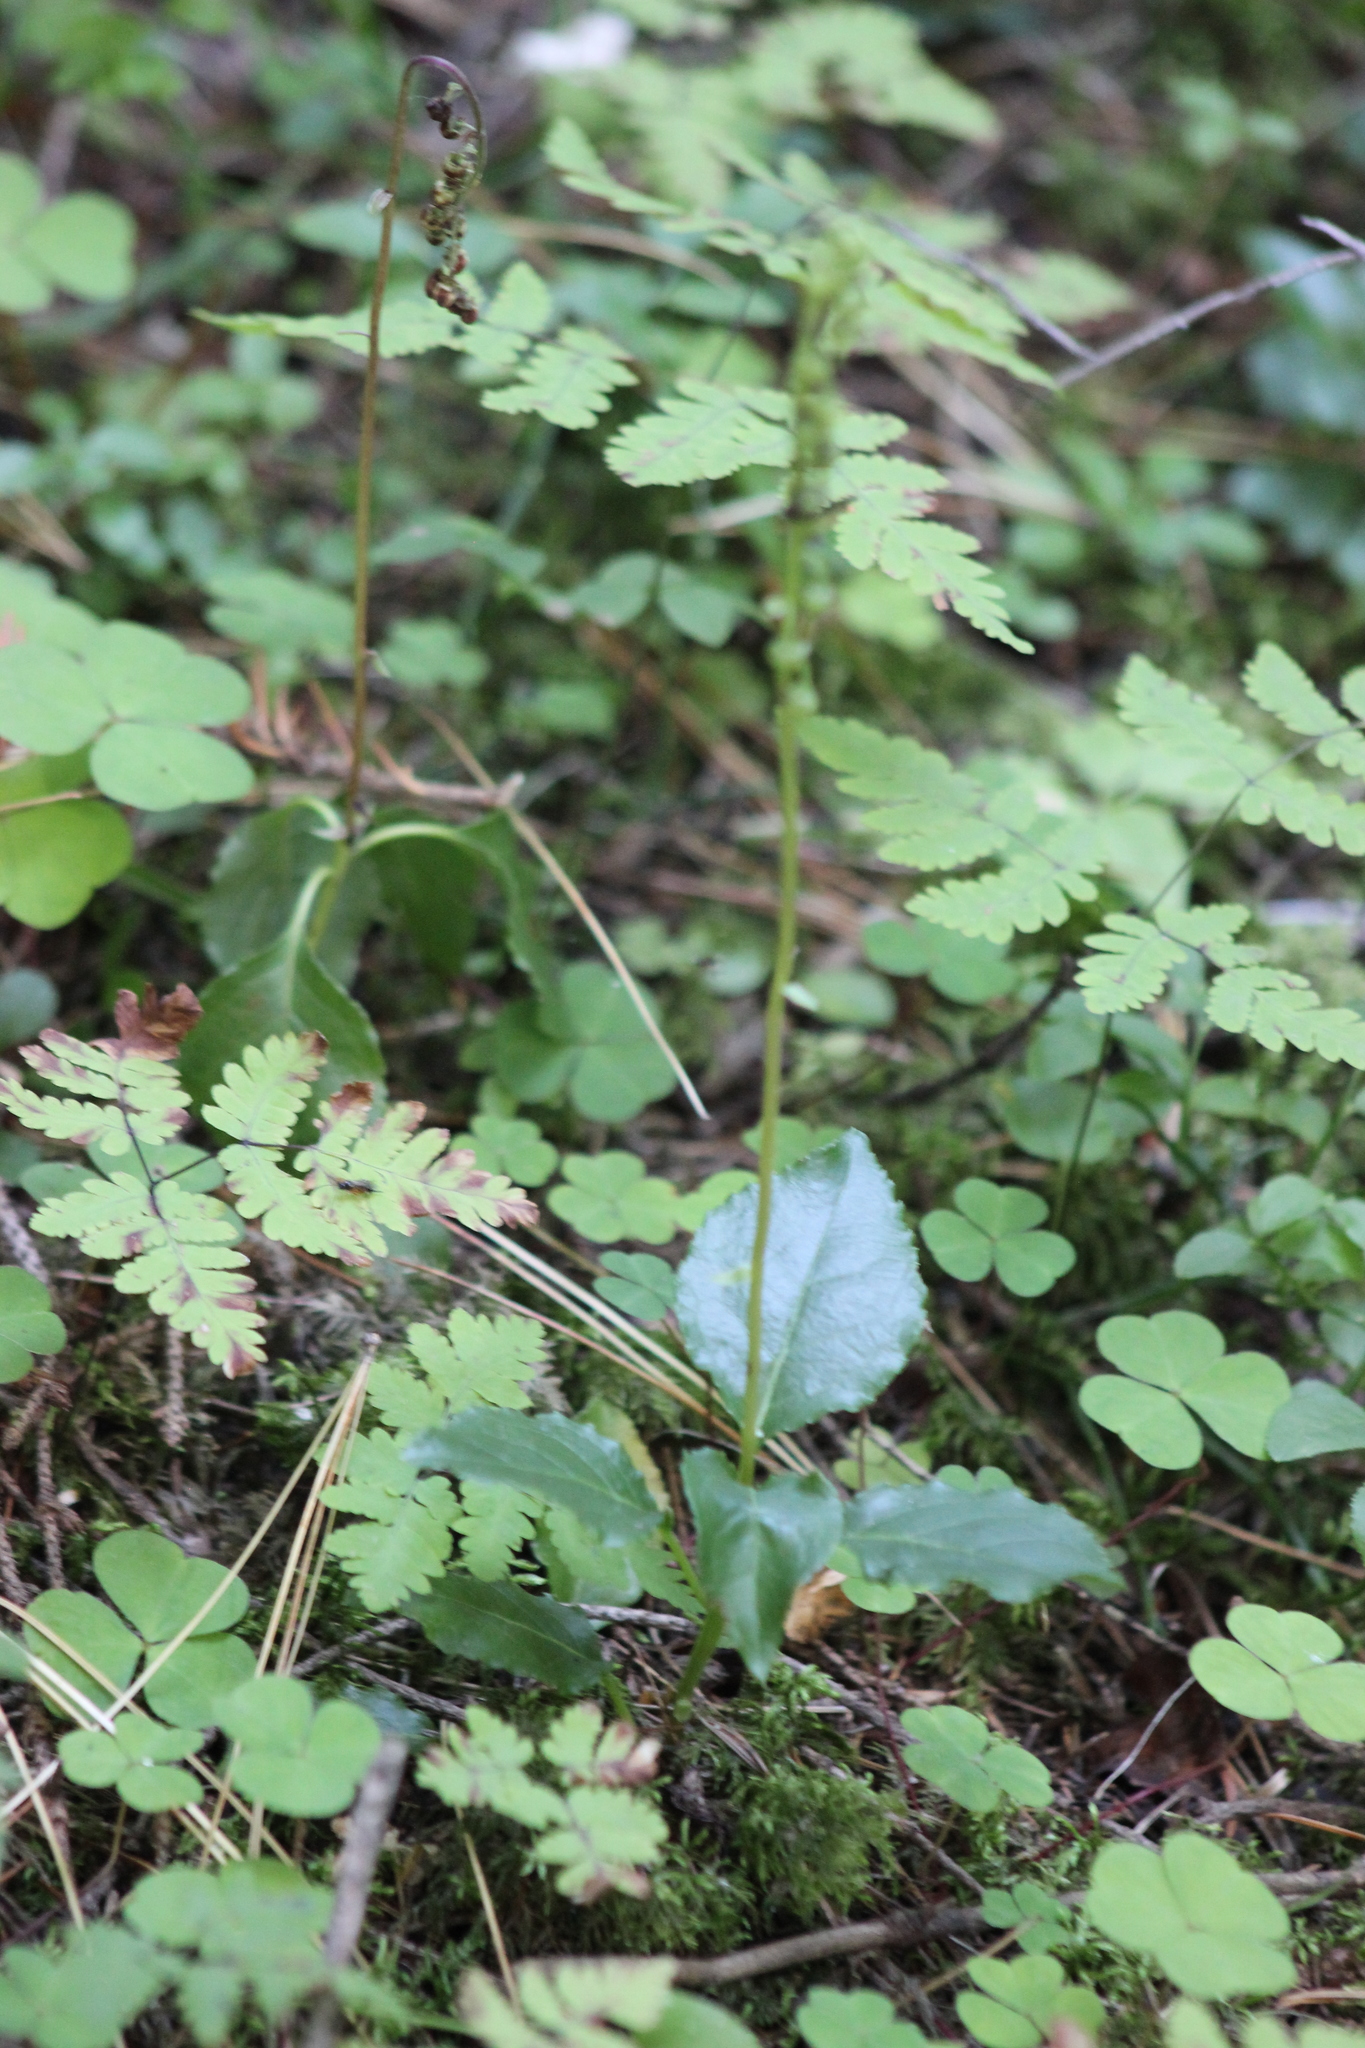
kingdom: Plantae
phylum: Tracheophyta
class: Magnoliopsida
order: Ericales
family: Ericaceae
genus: Orthilia
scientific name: Orthilia secunda
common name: One-sided orthilia
